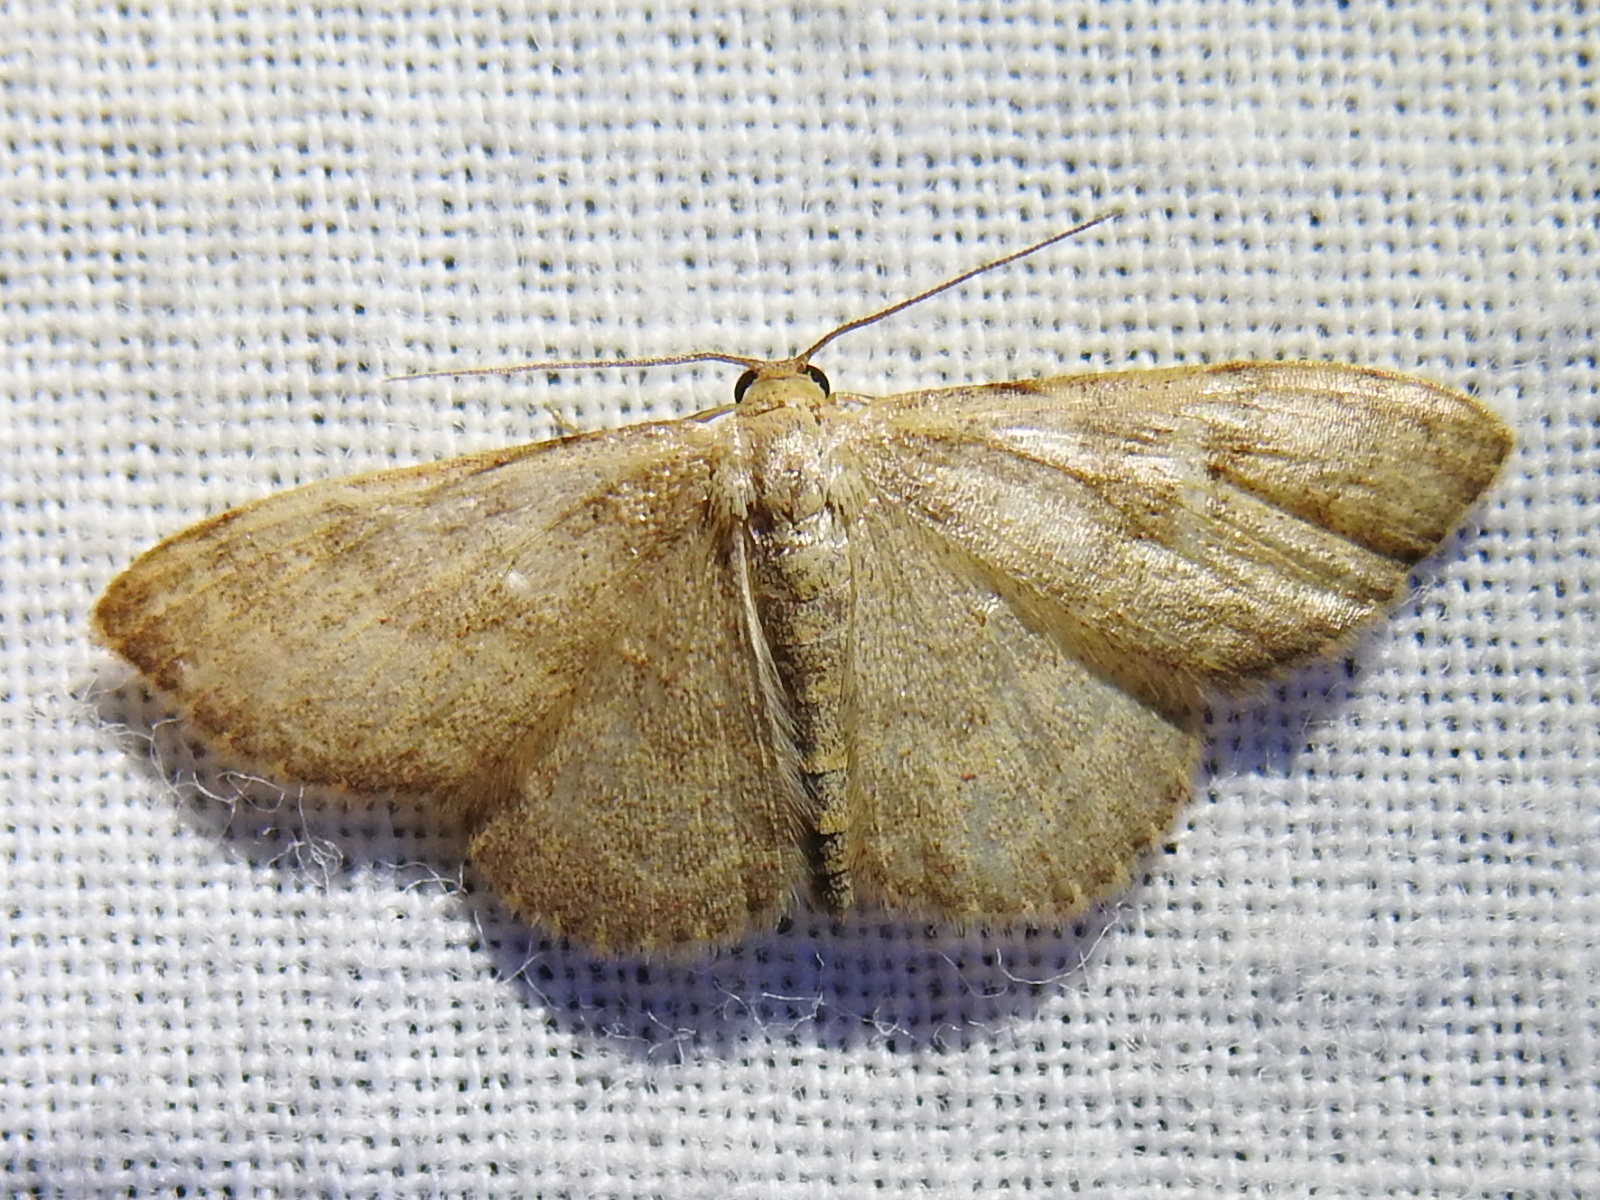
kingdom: Animalia
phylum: Arthropoda
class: Insecta
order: Lepidoptera
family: Geometridae
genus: Leptostales
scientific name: Leptostales pannaria
